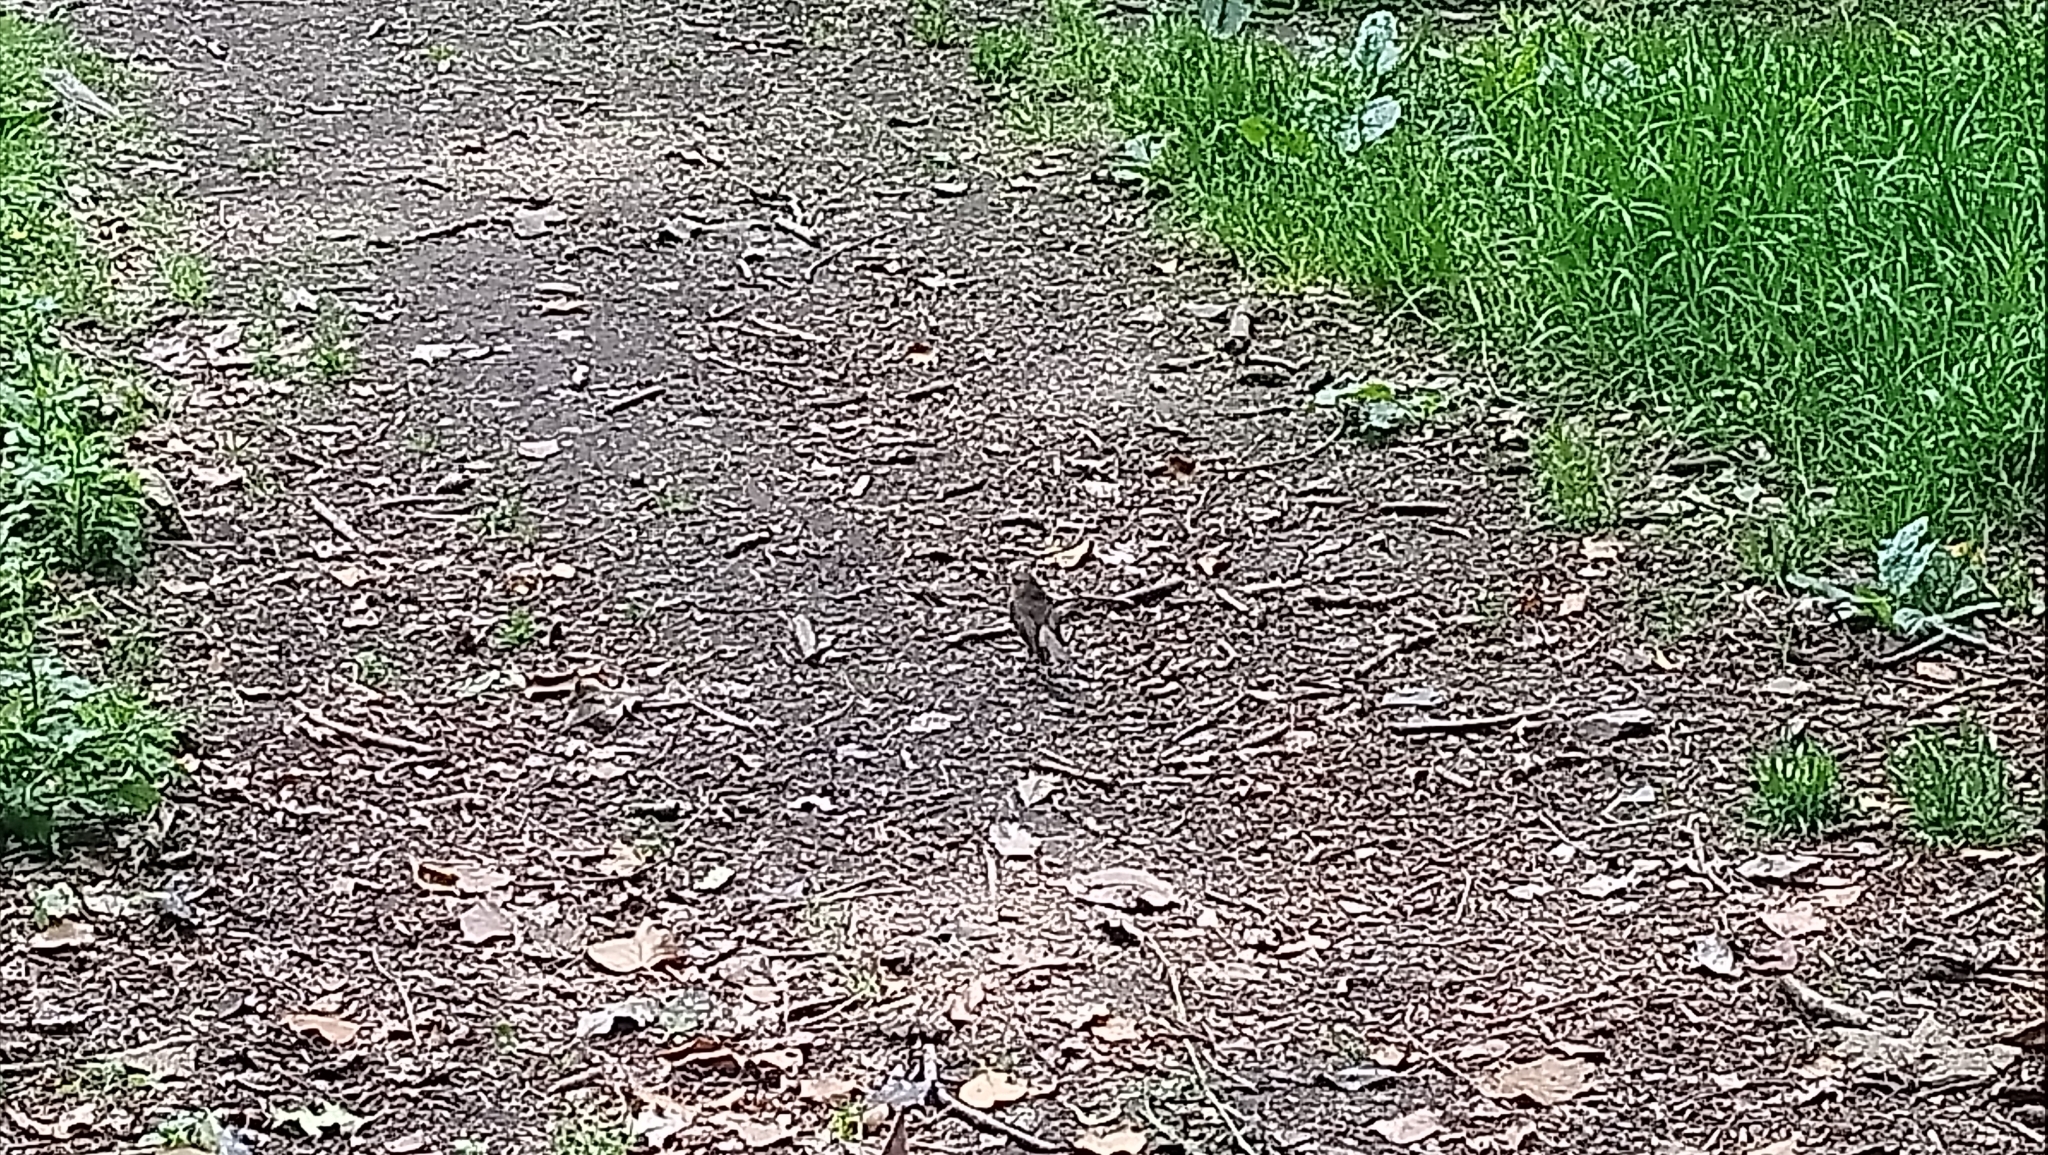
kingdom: Animalia
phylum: Chordata
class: Aves
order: Passeriformes
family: Muscicapidae
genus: Erithacus
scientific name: Erithacus rubecula
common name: European robin
